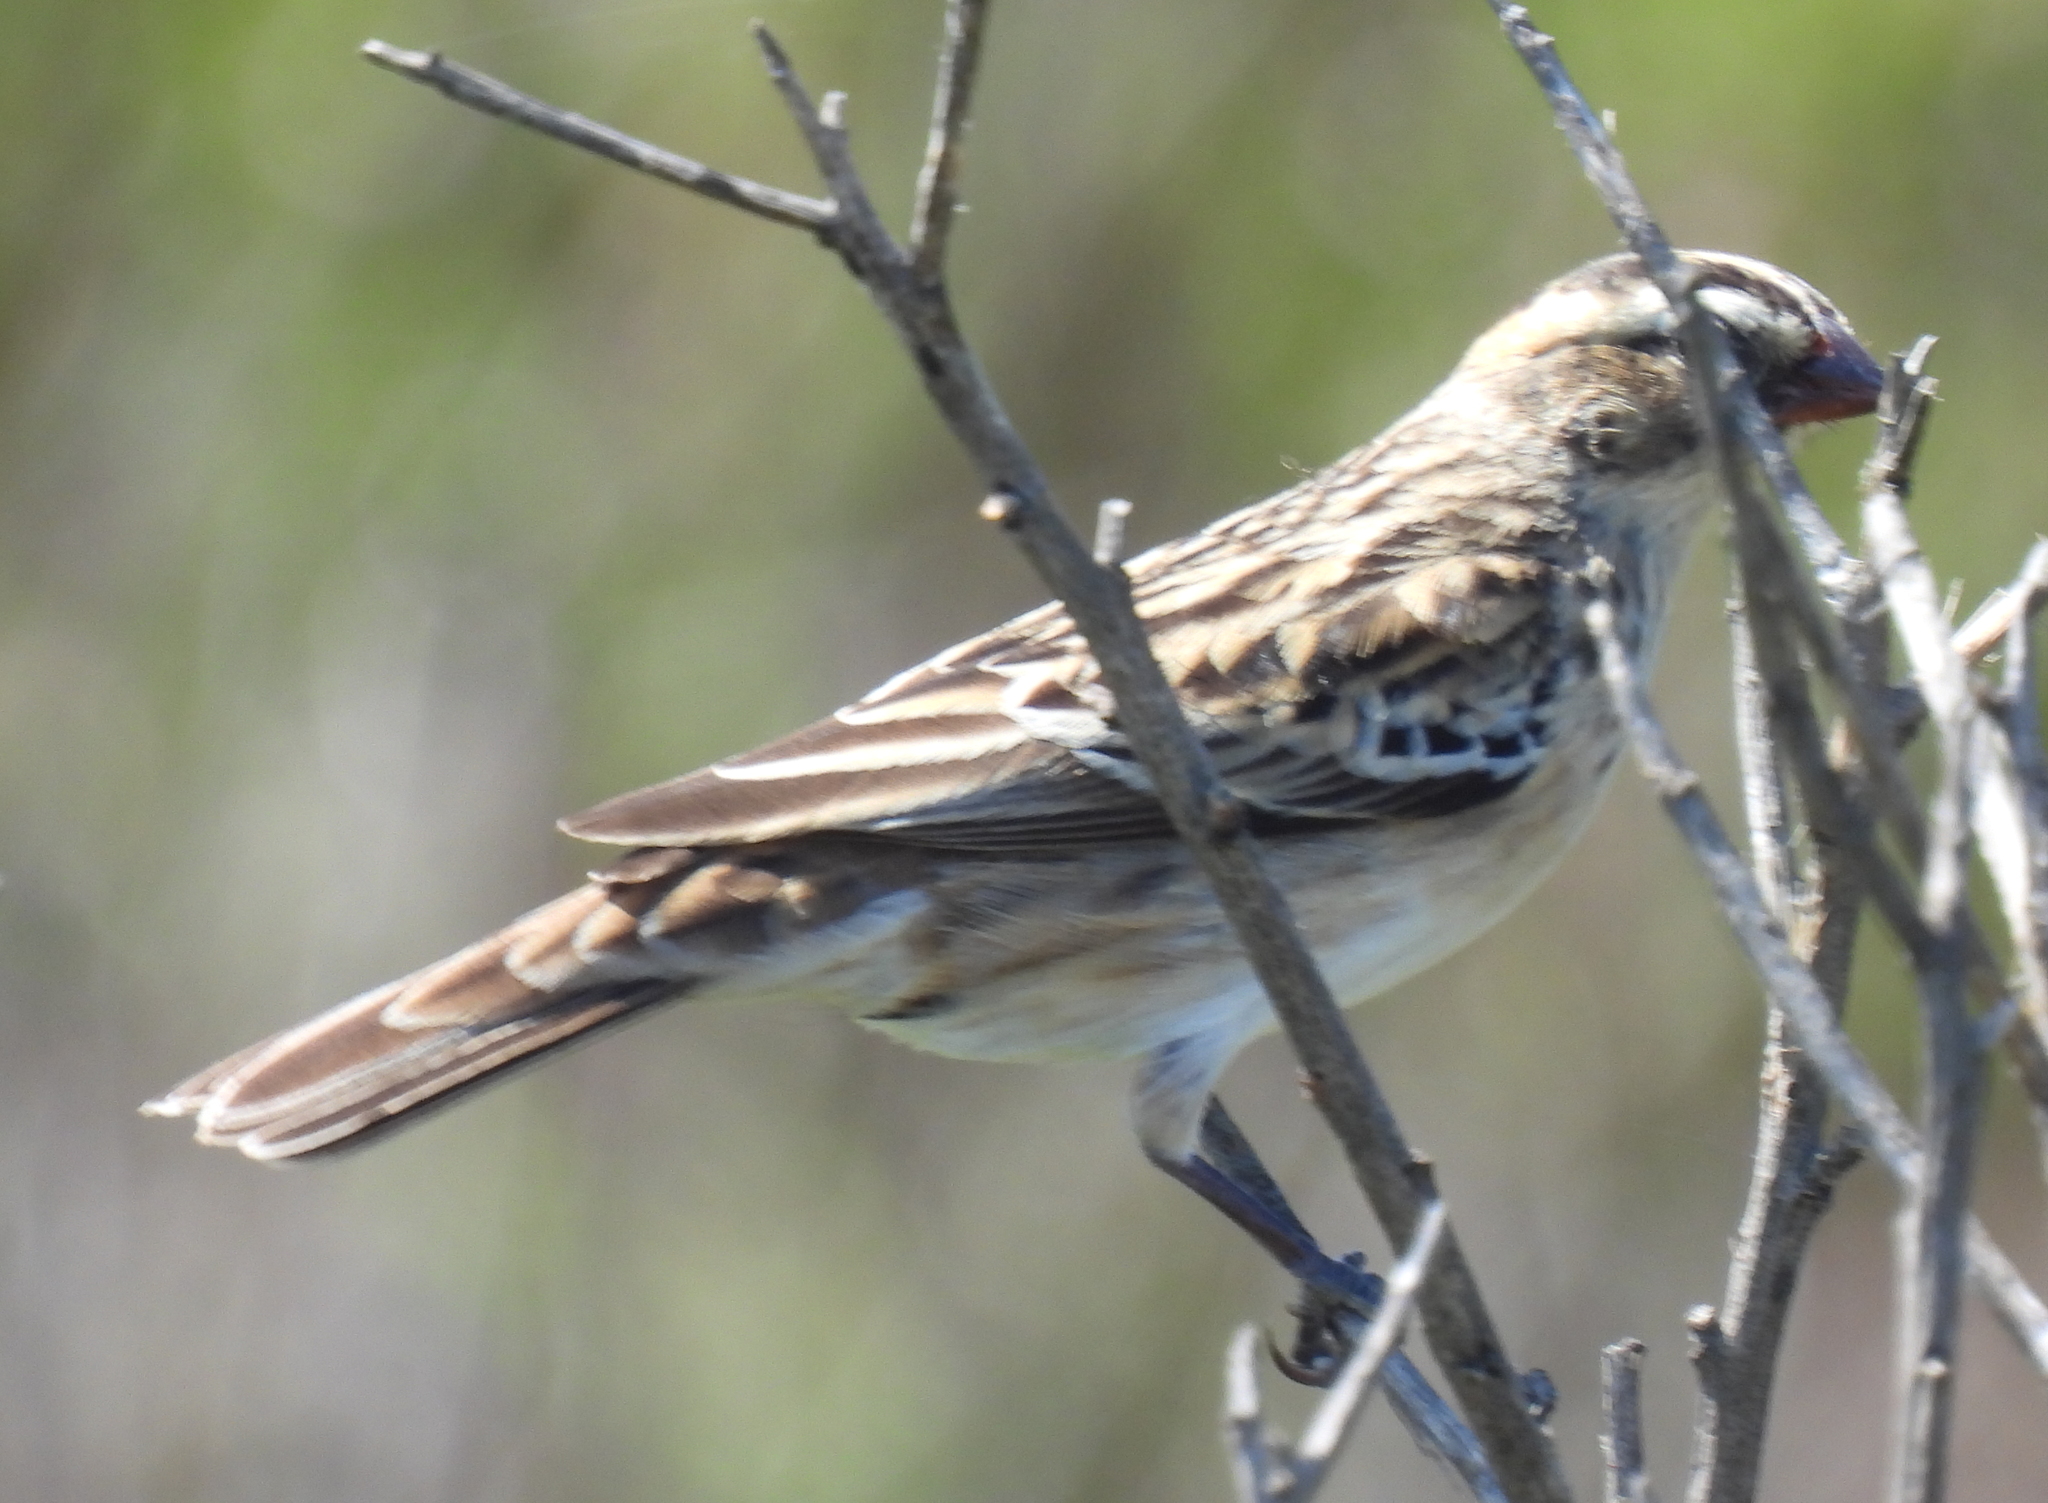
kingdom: Animalia
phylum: Chordata
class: Aves
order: Passeriformes
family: Viduidae
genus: Vidua
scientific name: Vidua macroura
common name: Pin-tailed whydah
